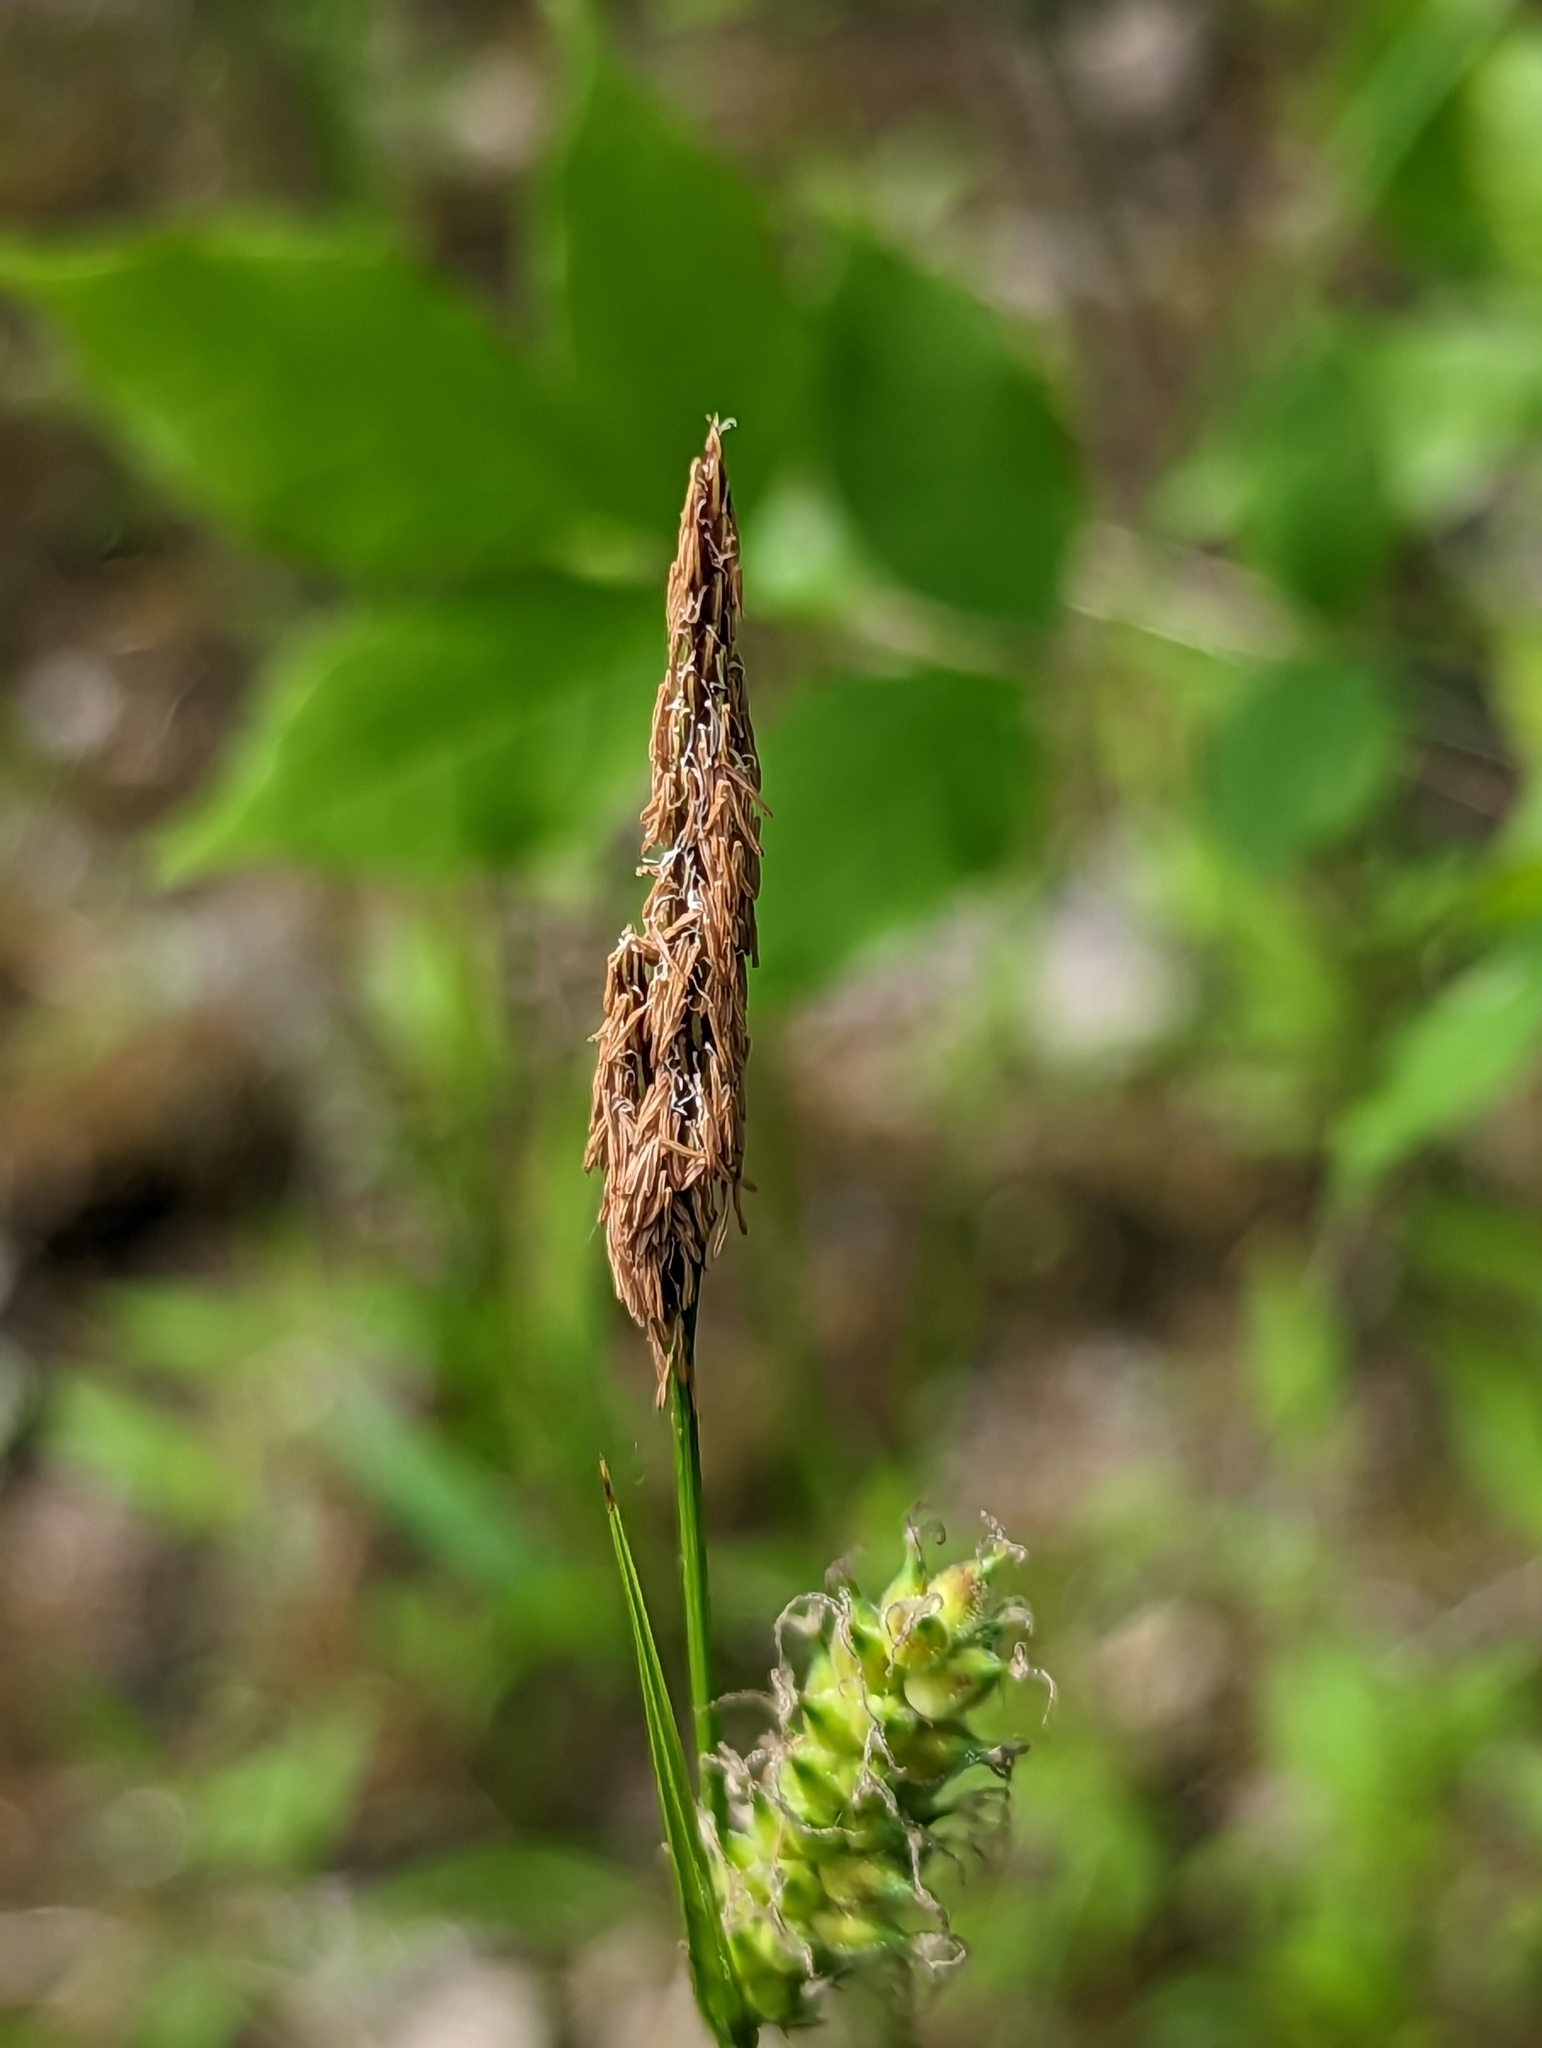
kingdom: Plantae
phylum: Tracheophyta
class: Liliopsida
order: Poales
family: Cyperaceae
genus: Carex
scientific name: Carex pellita
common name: Woolly sedge
